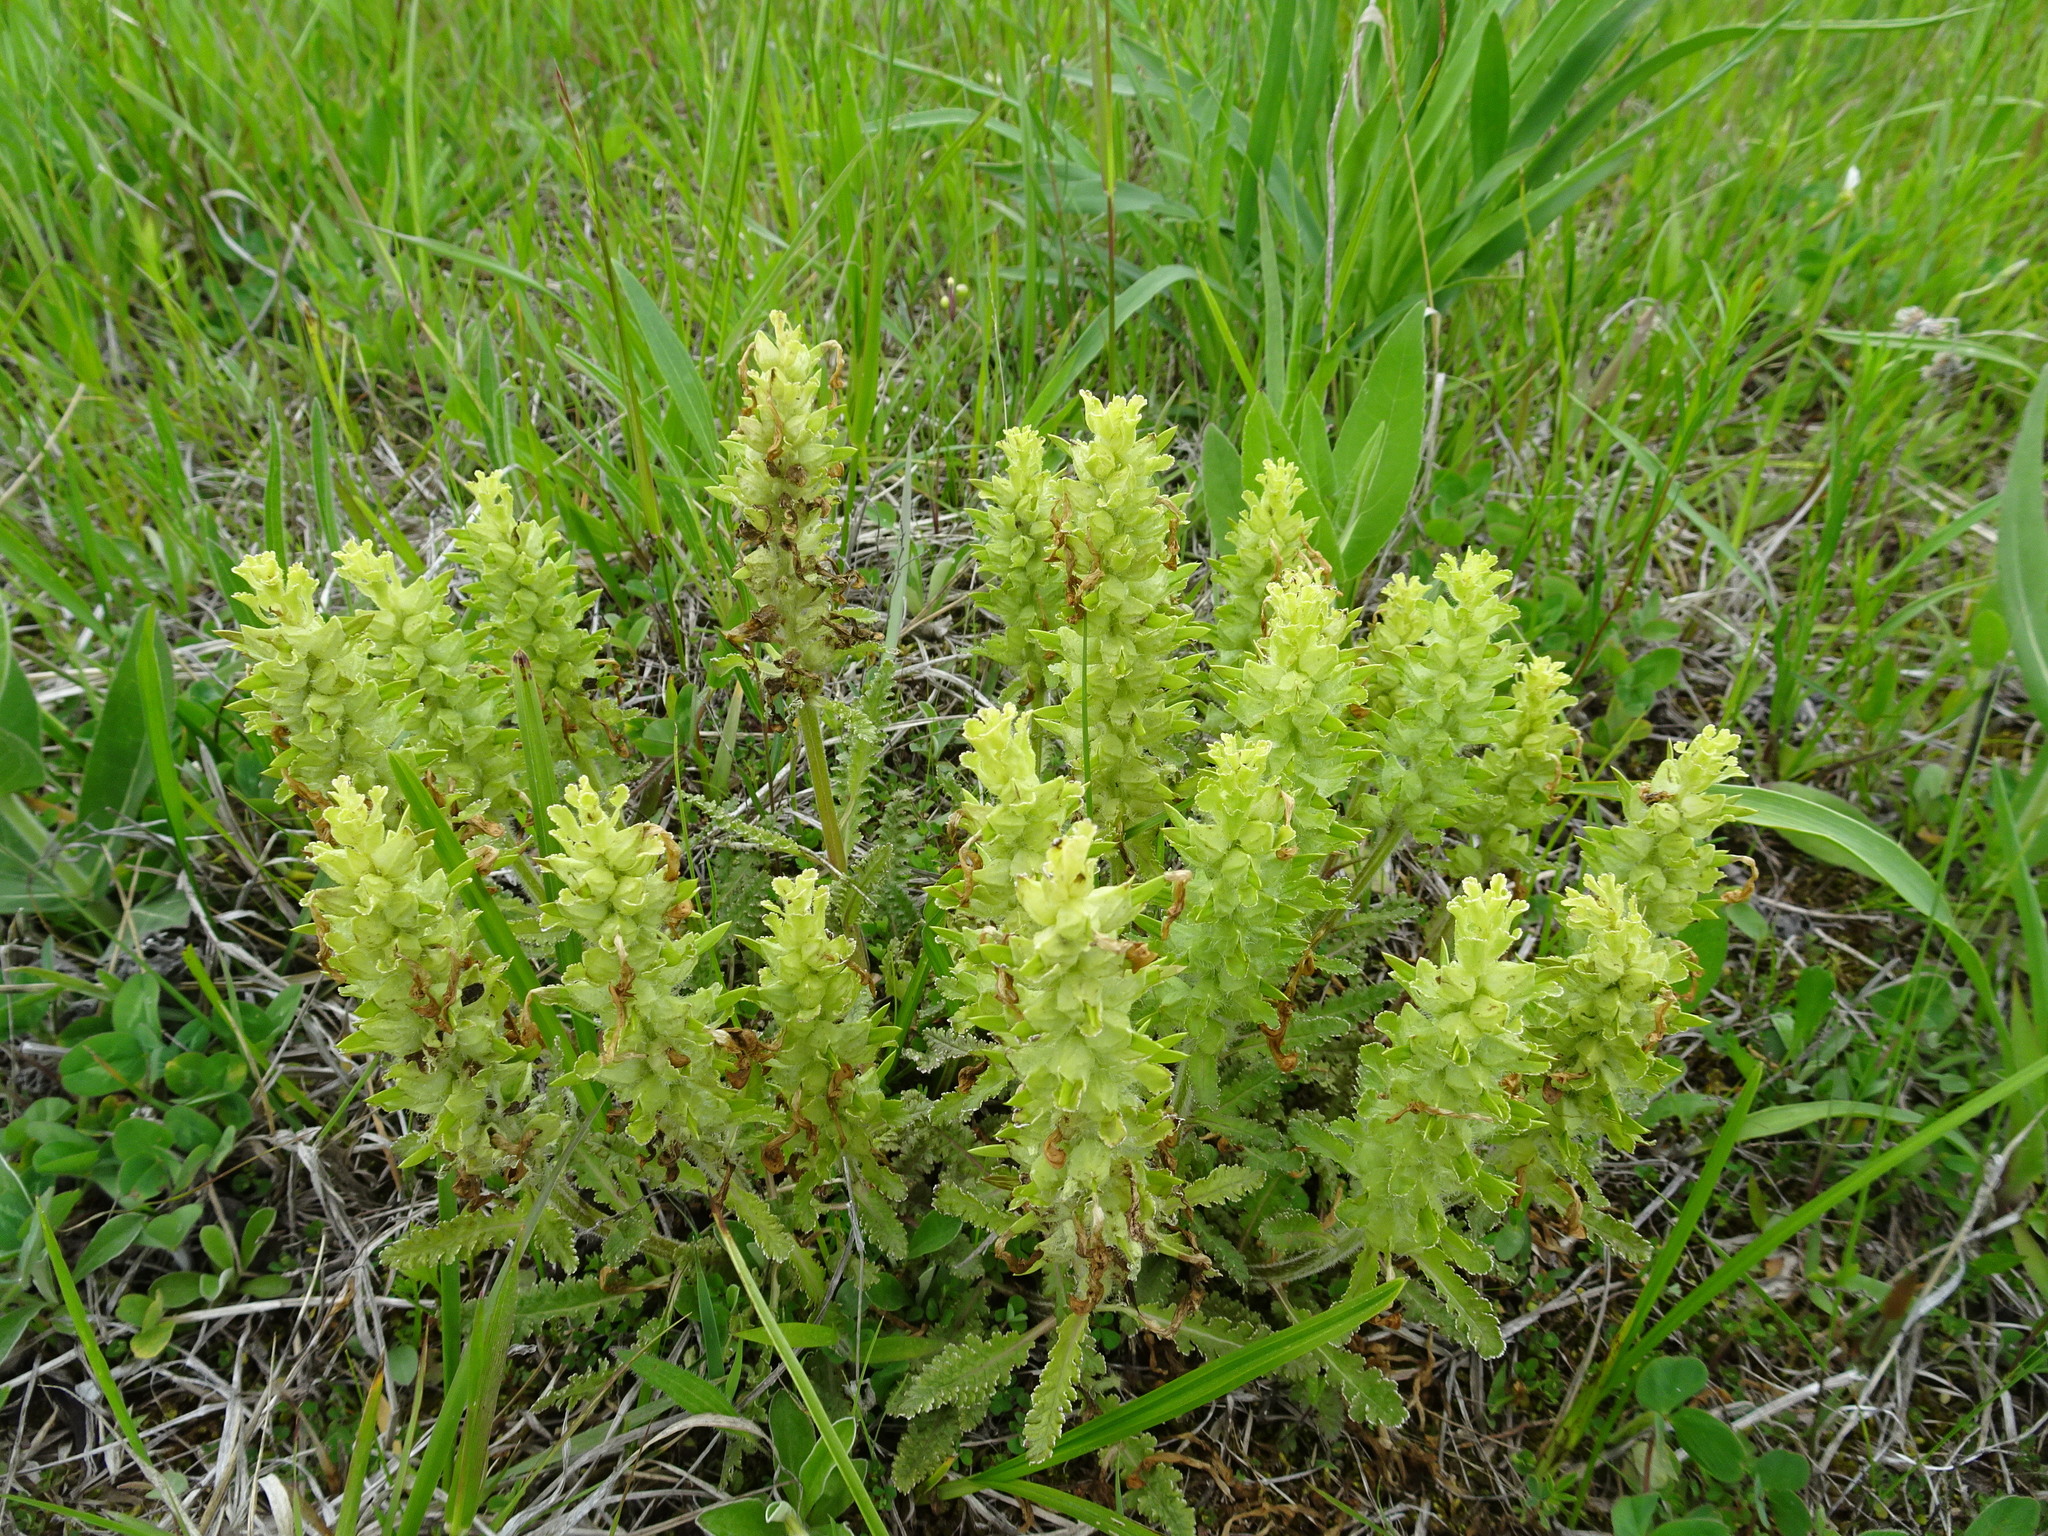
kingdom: Plantae
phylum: Tracheophyta
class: Magnoliopsida
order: Lamiales
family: Orobanchaceae
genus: Pedicularis
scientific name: Pedicularis canadensis
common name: Early lousewort
